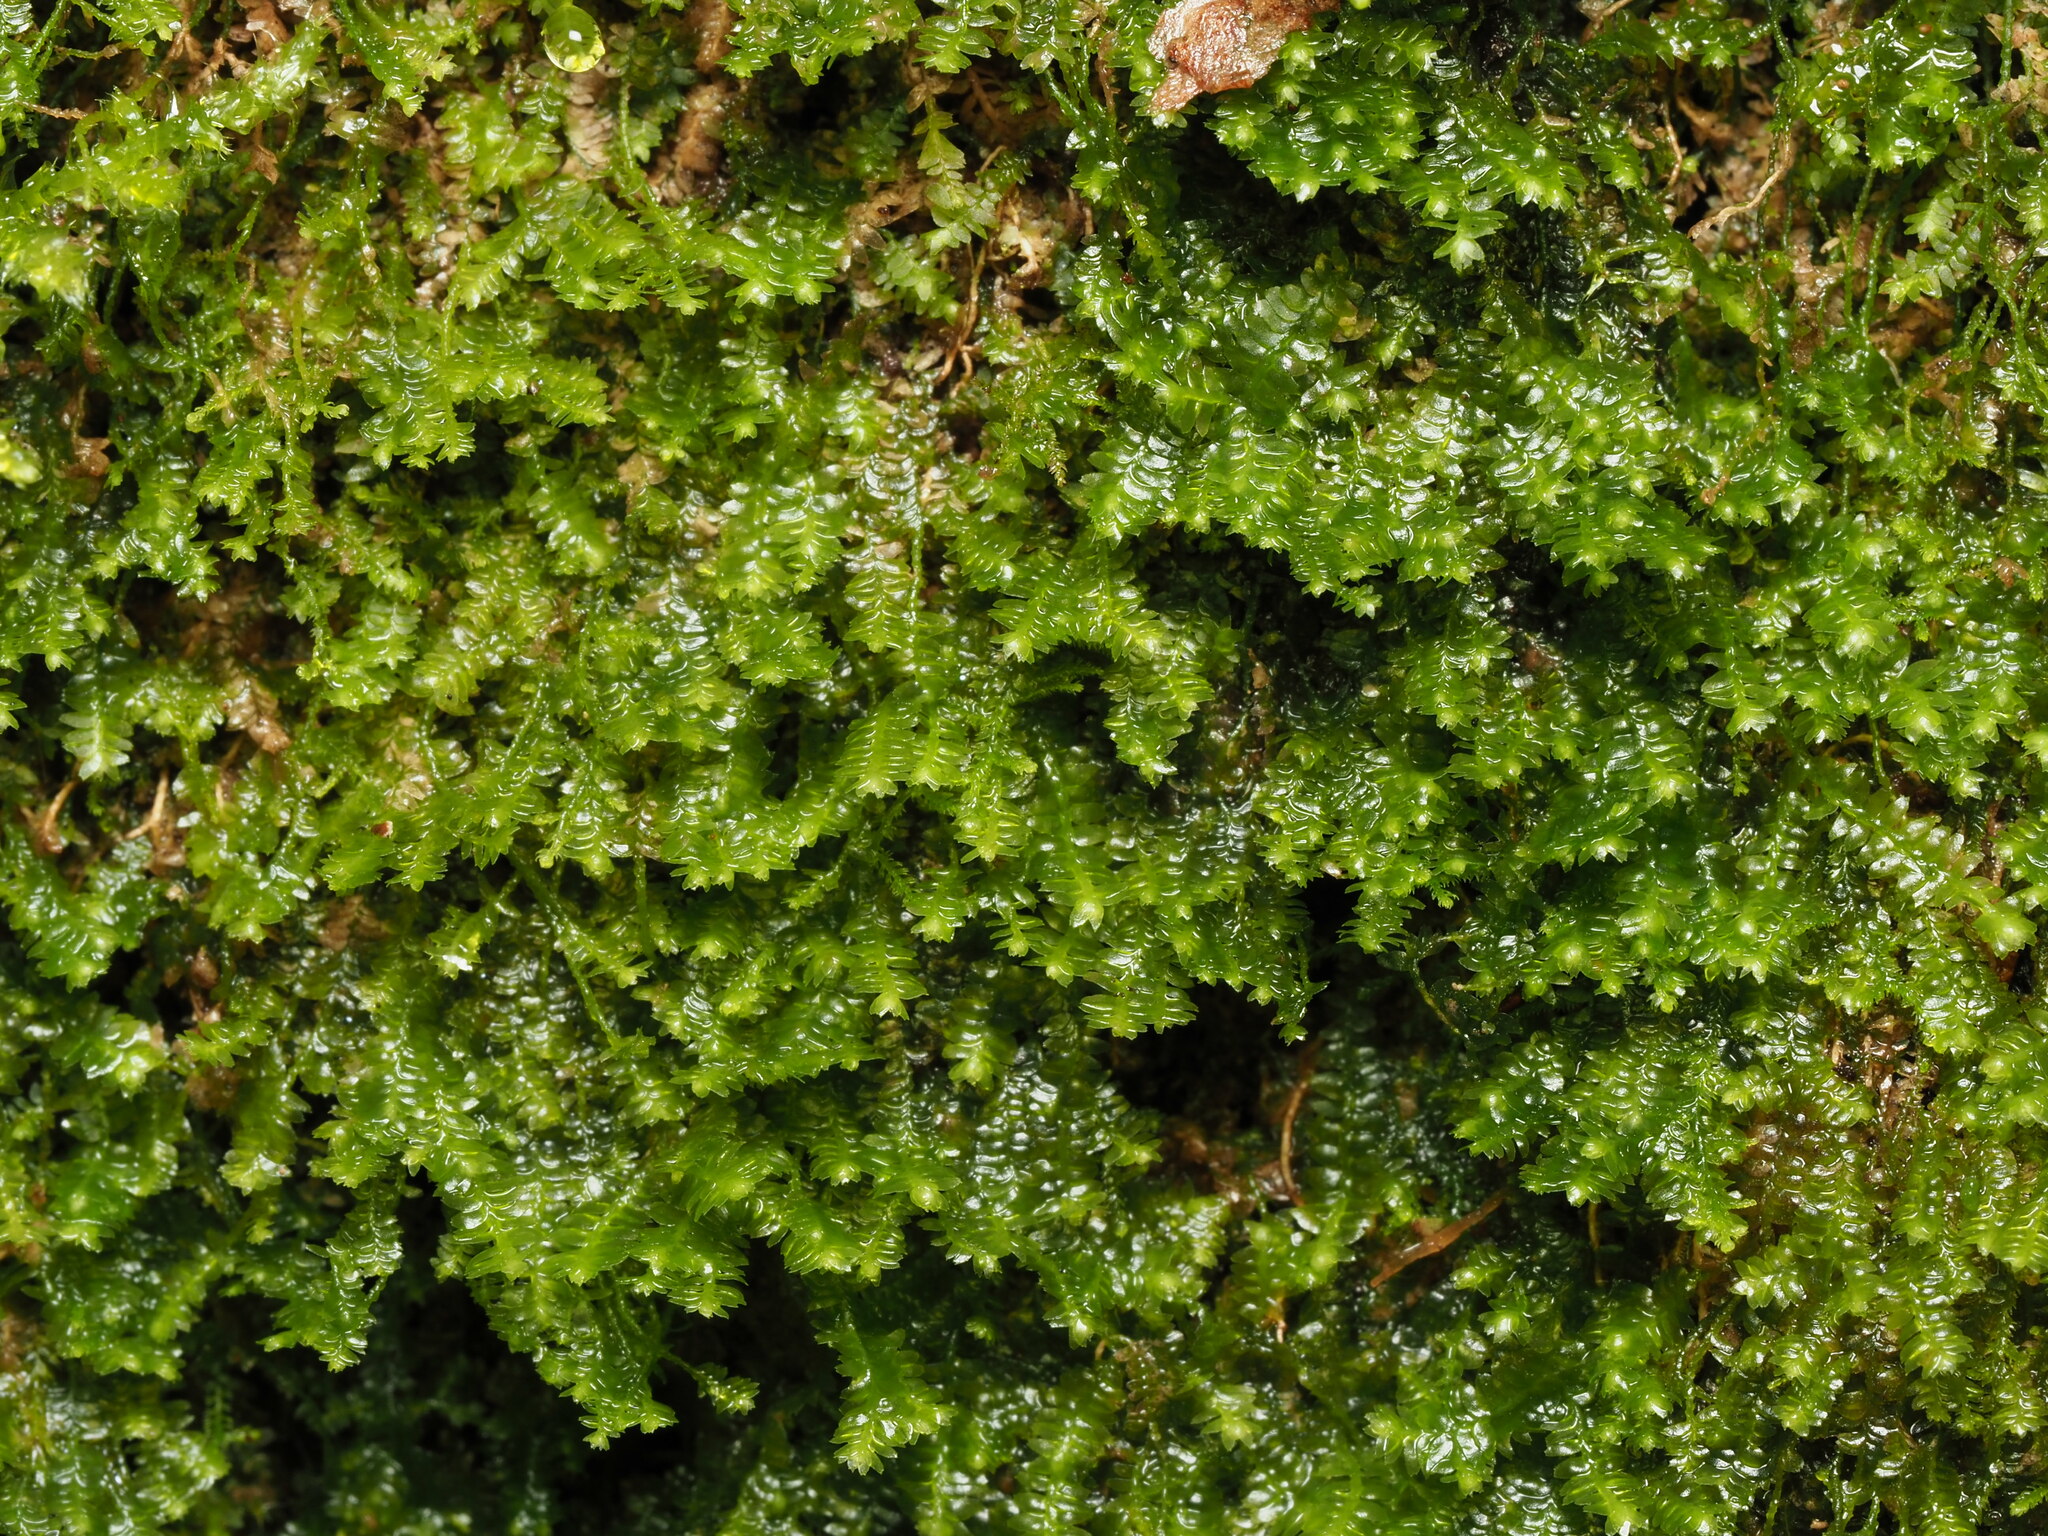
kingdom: Plantae
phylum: Marchantiophyta
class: Jungermanniopsida
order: Jungermanniales
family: Lepidoziaceae
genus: Bazzania
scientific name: Bazzania denudata
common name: Naked whipwort
